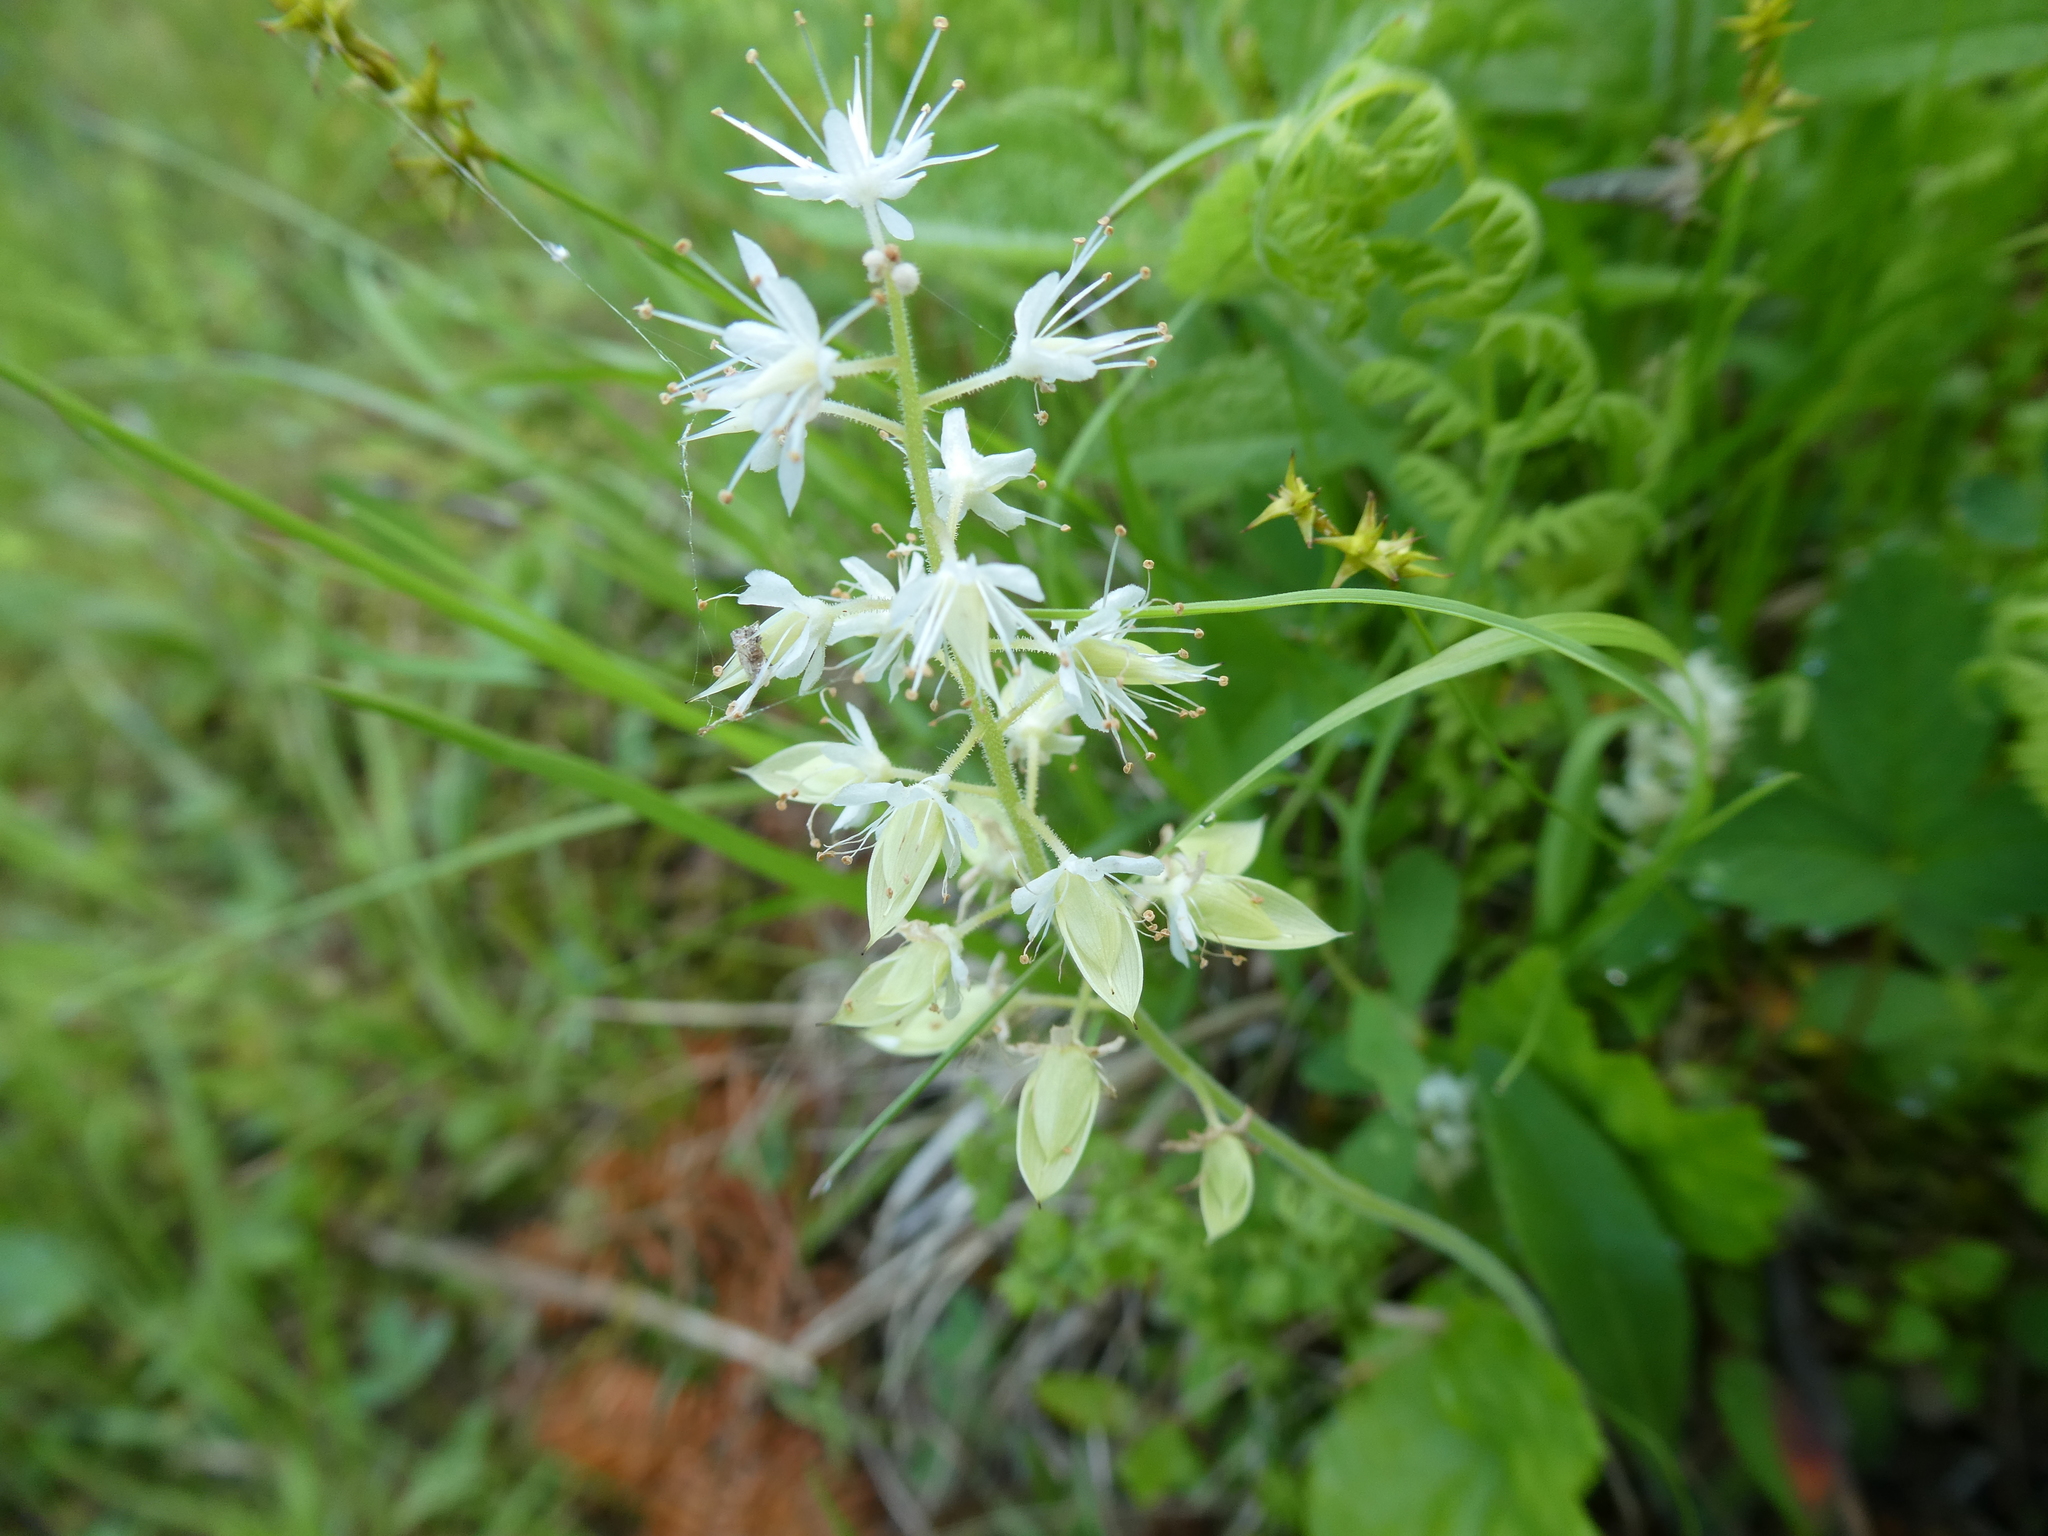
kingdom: Plantae
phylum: Tracheophyta
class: Magnoliopsida
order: Saxifragales
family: Saxifragaceae
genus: Tiarella
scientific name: Tiarella stolonifera
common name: Stoloniferous foamflower
